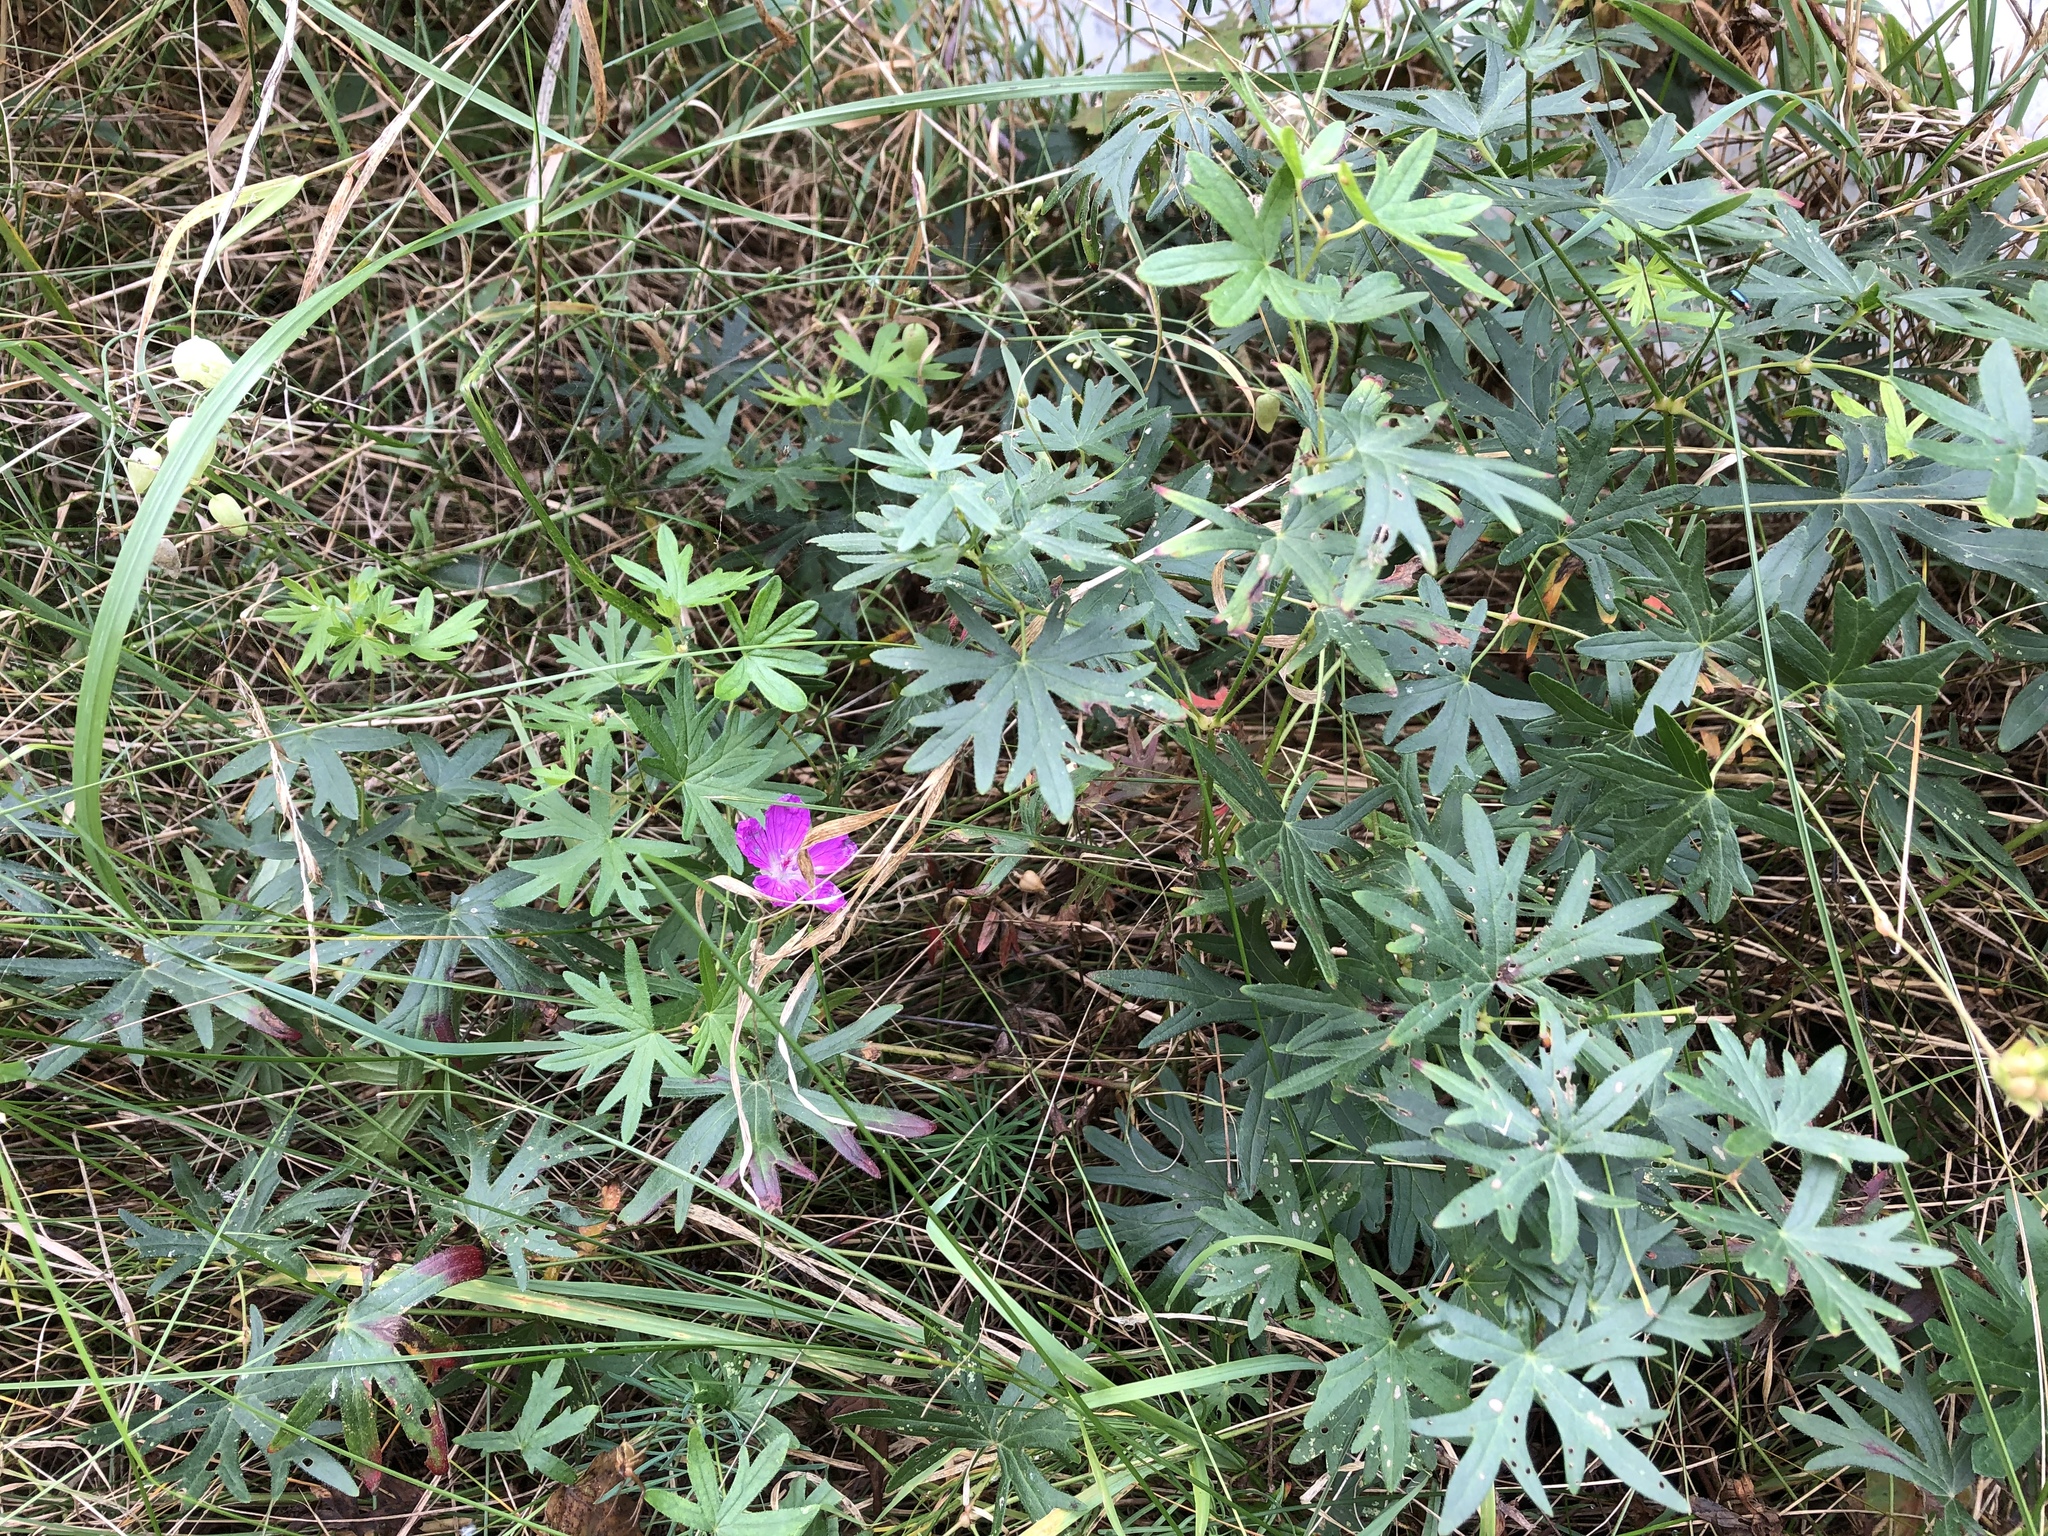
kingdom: Plantae
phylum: Tracheophyta
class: Magnoliopsida
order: Geraniales
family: Geraniaceae
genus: Geranium
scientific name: Geranium sanguineum
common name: Bloody crane's-bill
